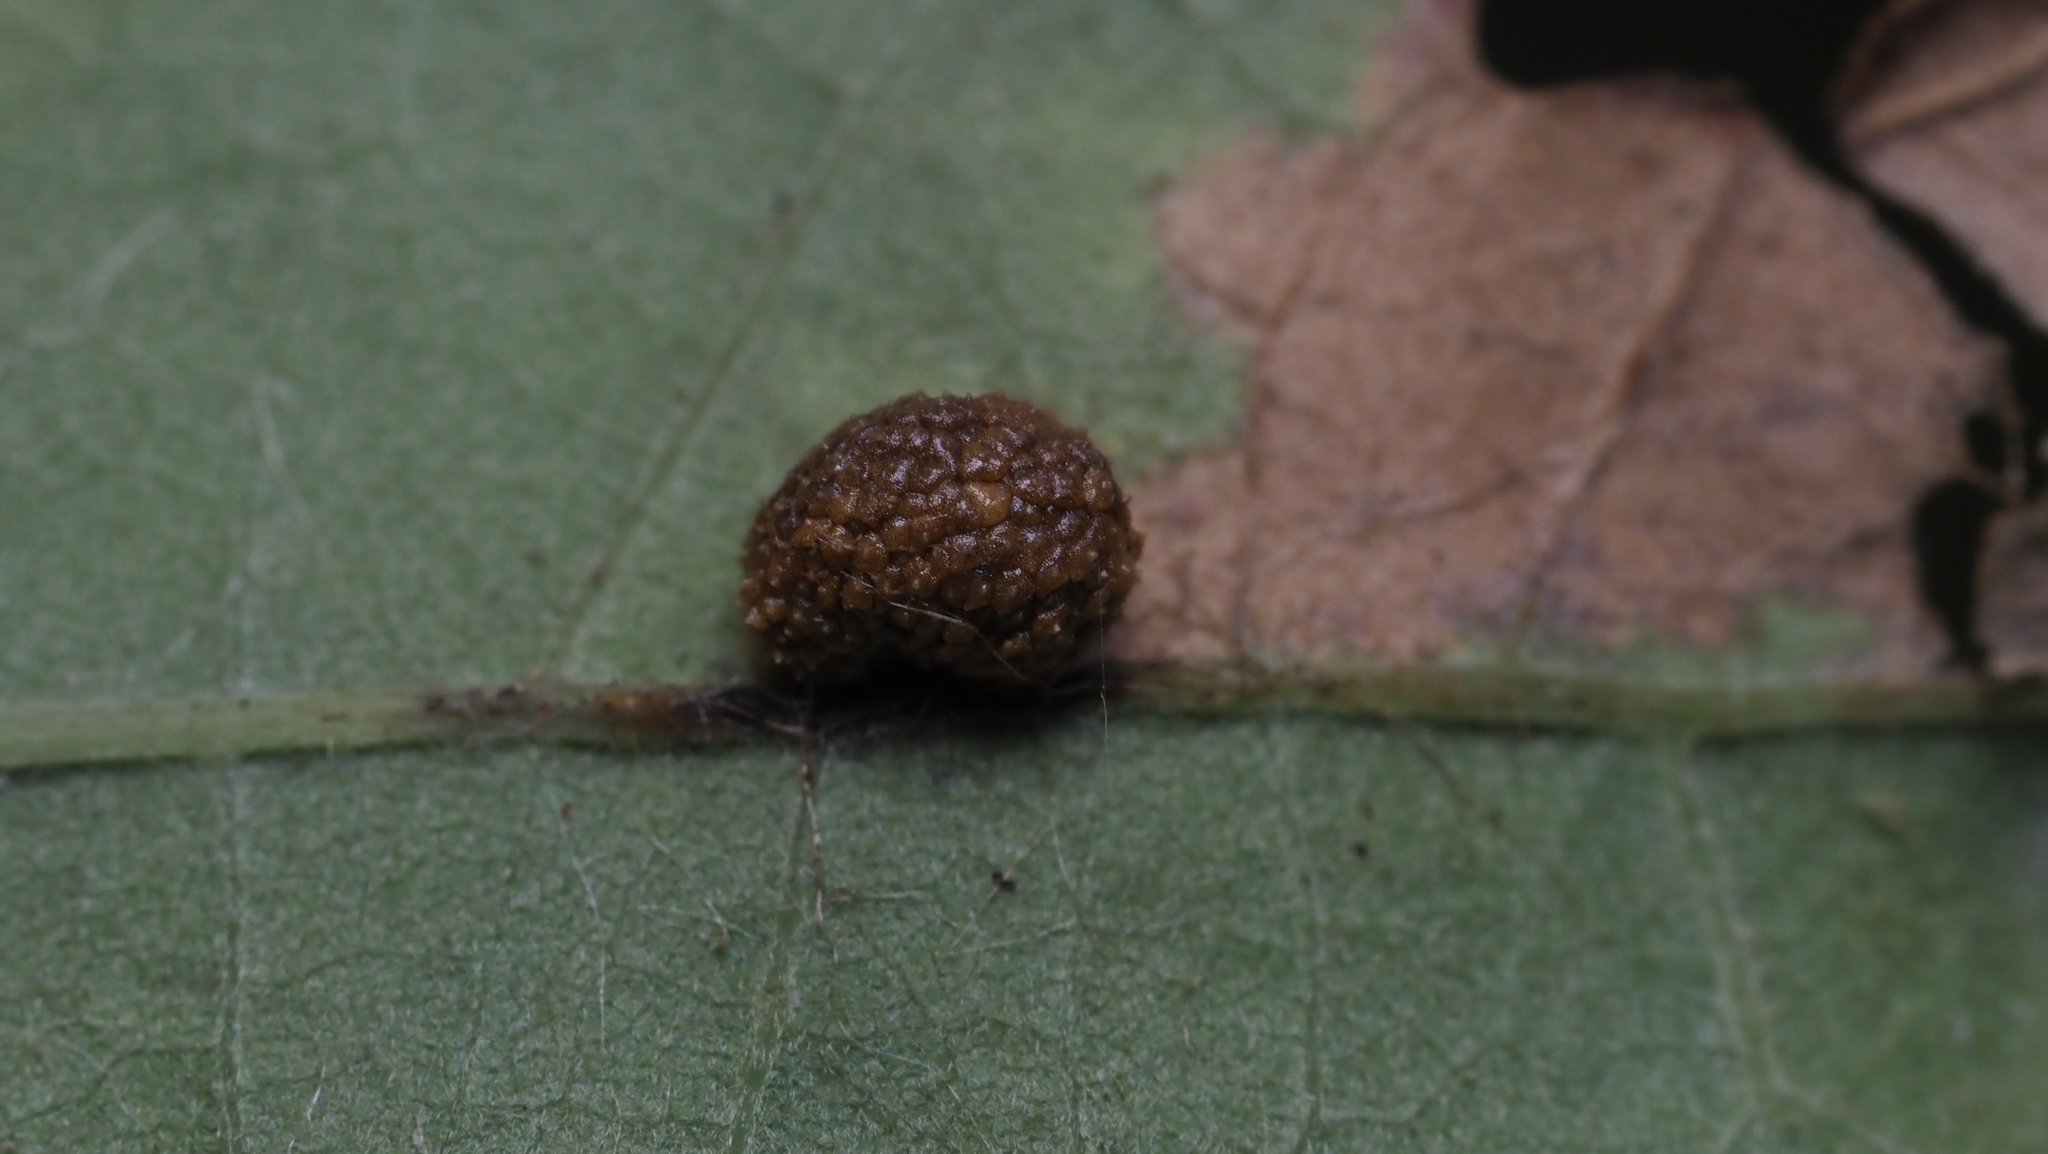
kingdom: Animalia
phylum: Arthropoda
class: Insecta
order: Hymenoptera
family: Cynipidae
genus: Acraspis
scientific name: Acraspis quercushirta
